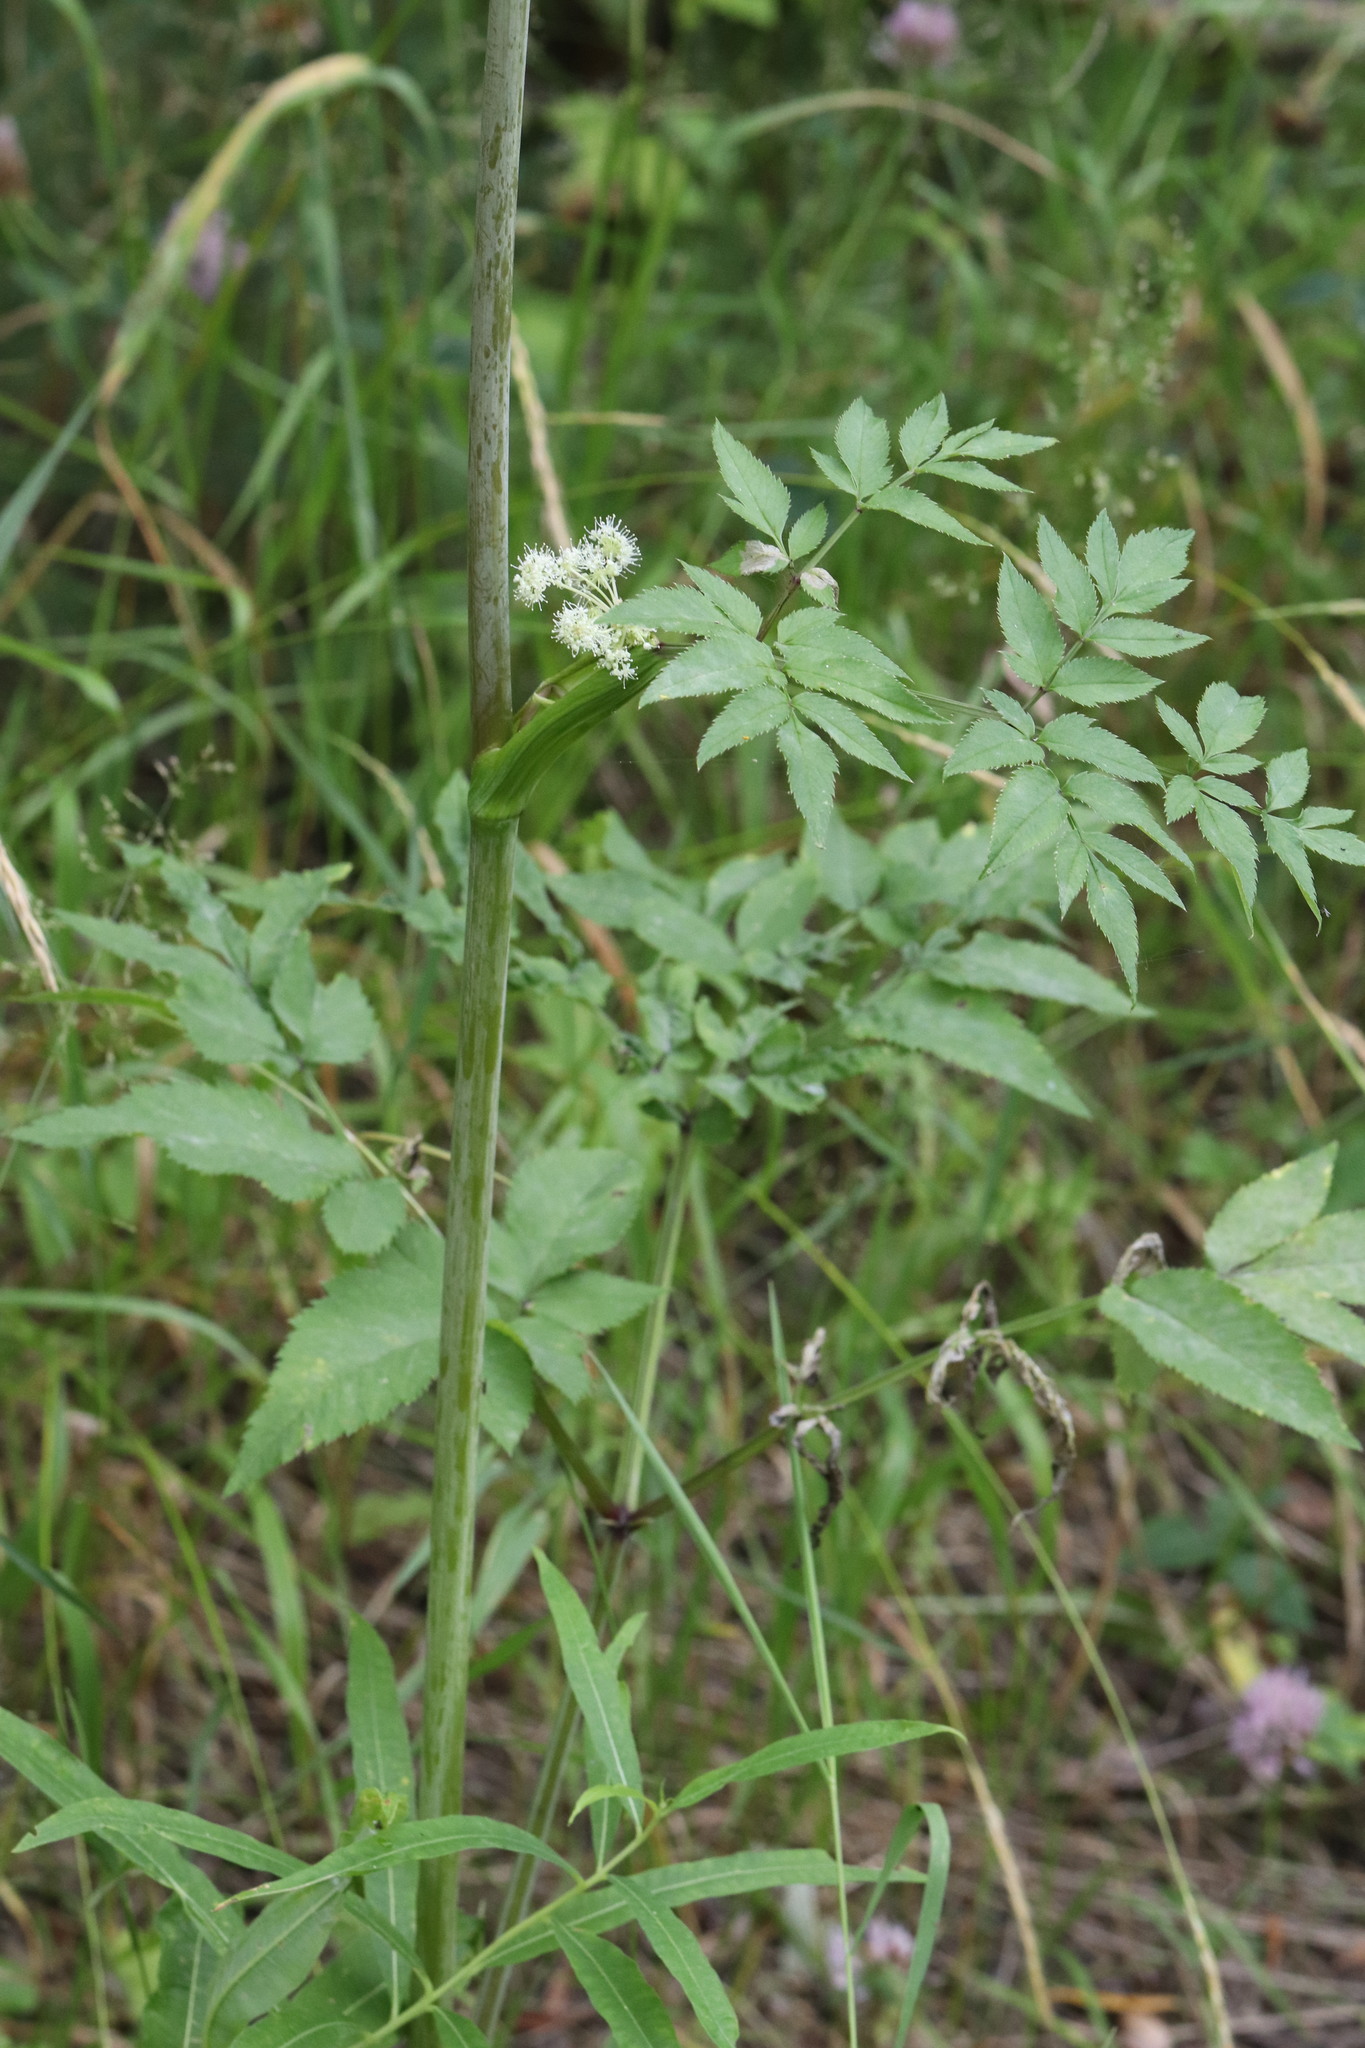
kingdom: Plantae
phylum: Tracheophyta
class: Magnoliopsida
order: Apiales
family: Apiaceae
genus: Angelica
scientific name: Angelica sylvestris
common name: Wild angelica
